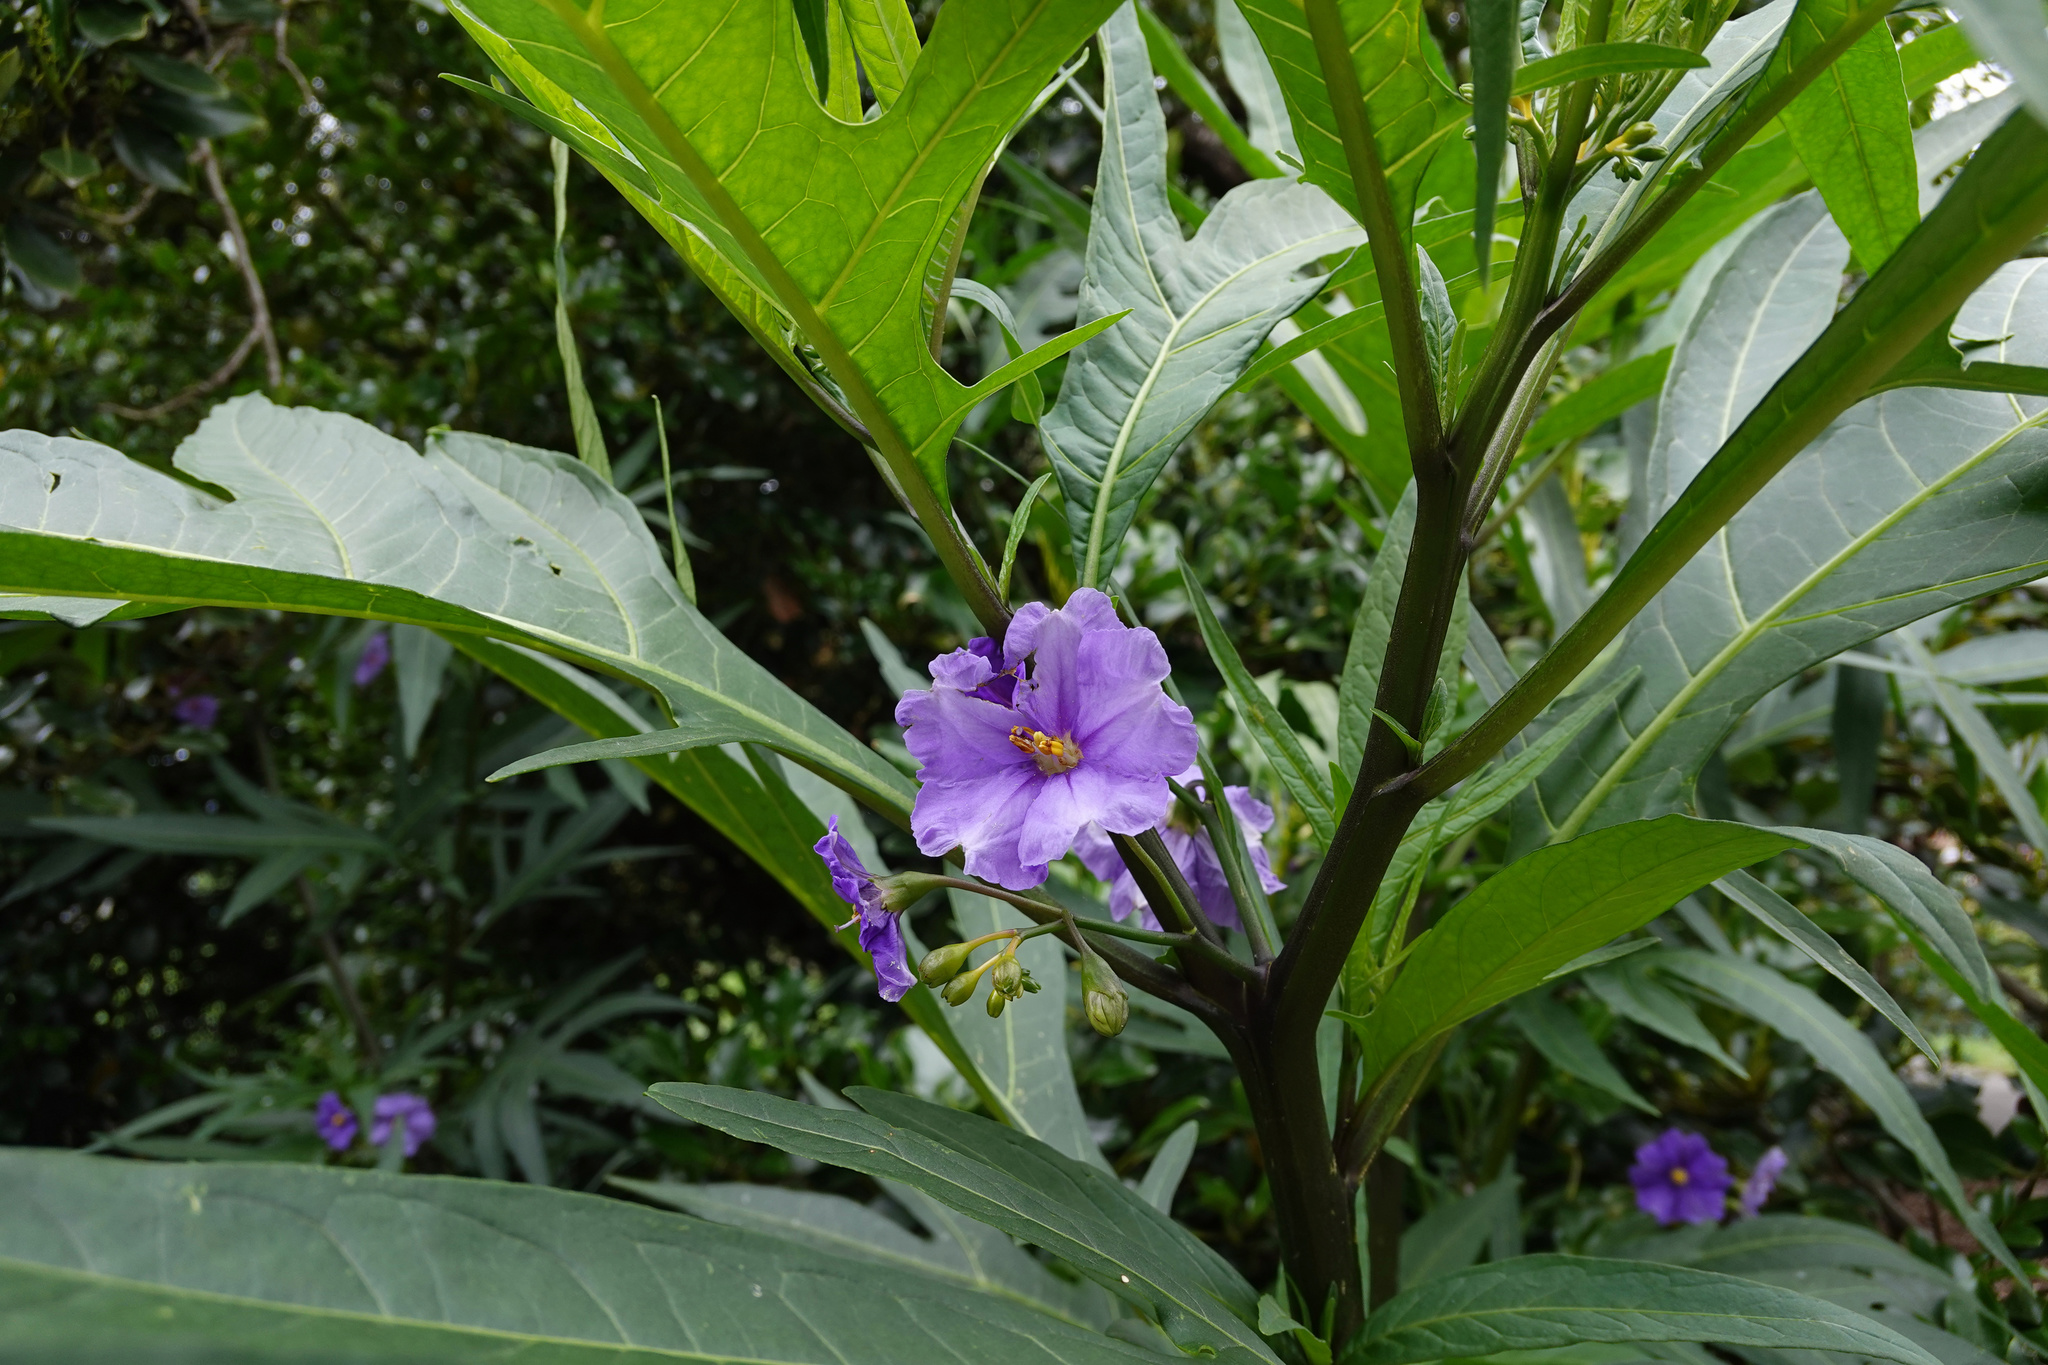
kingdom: Plantae
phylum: Tracheophyta
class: Magnoliopsida
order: Solanales
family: Solanaceae
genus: Solanum
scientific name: Solanum laciniatum
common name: Kangaroo-apple
